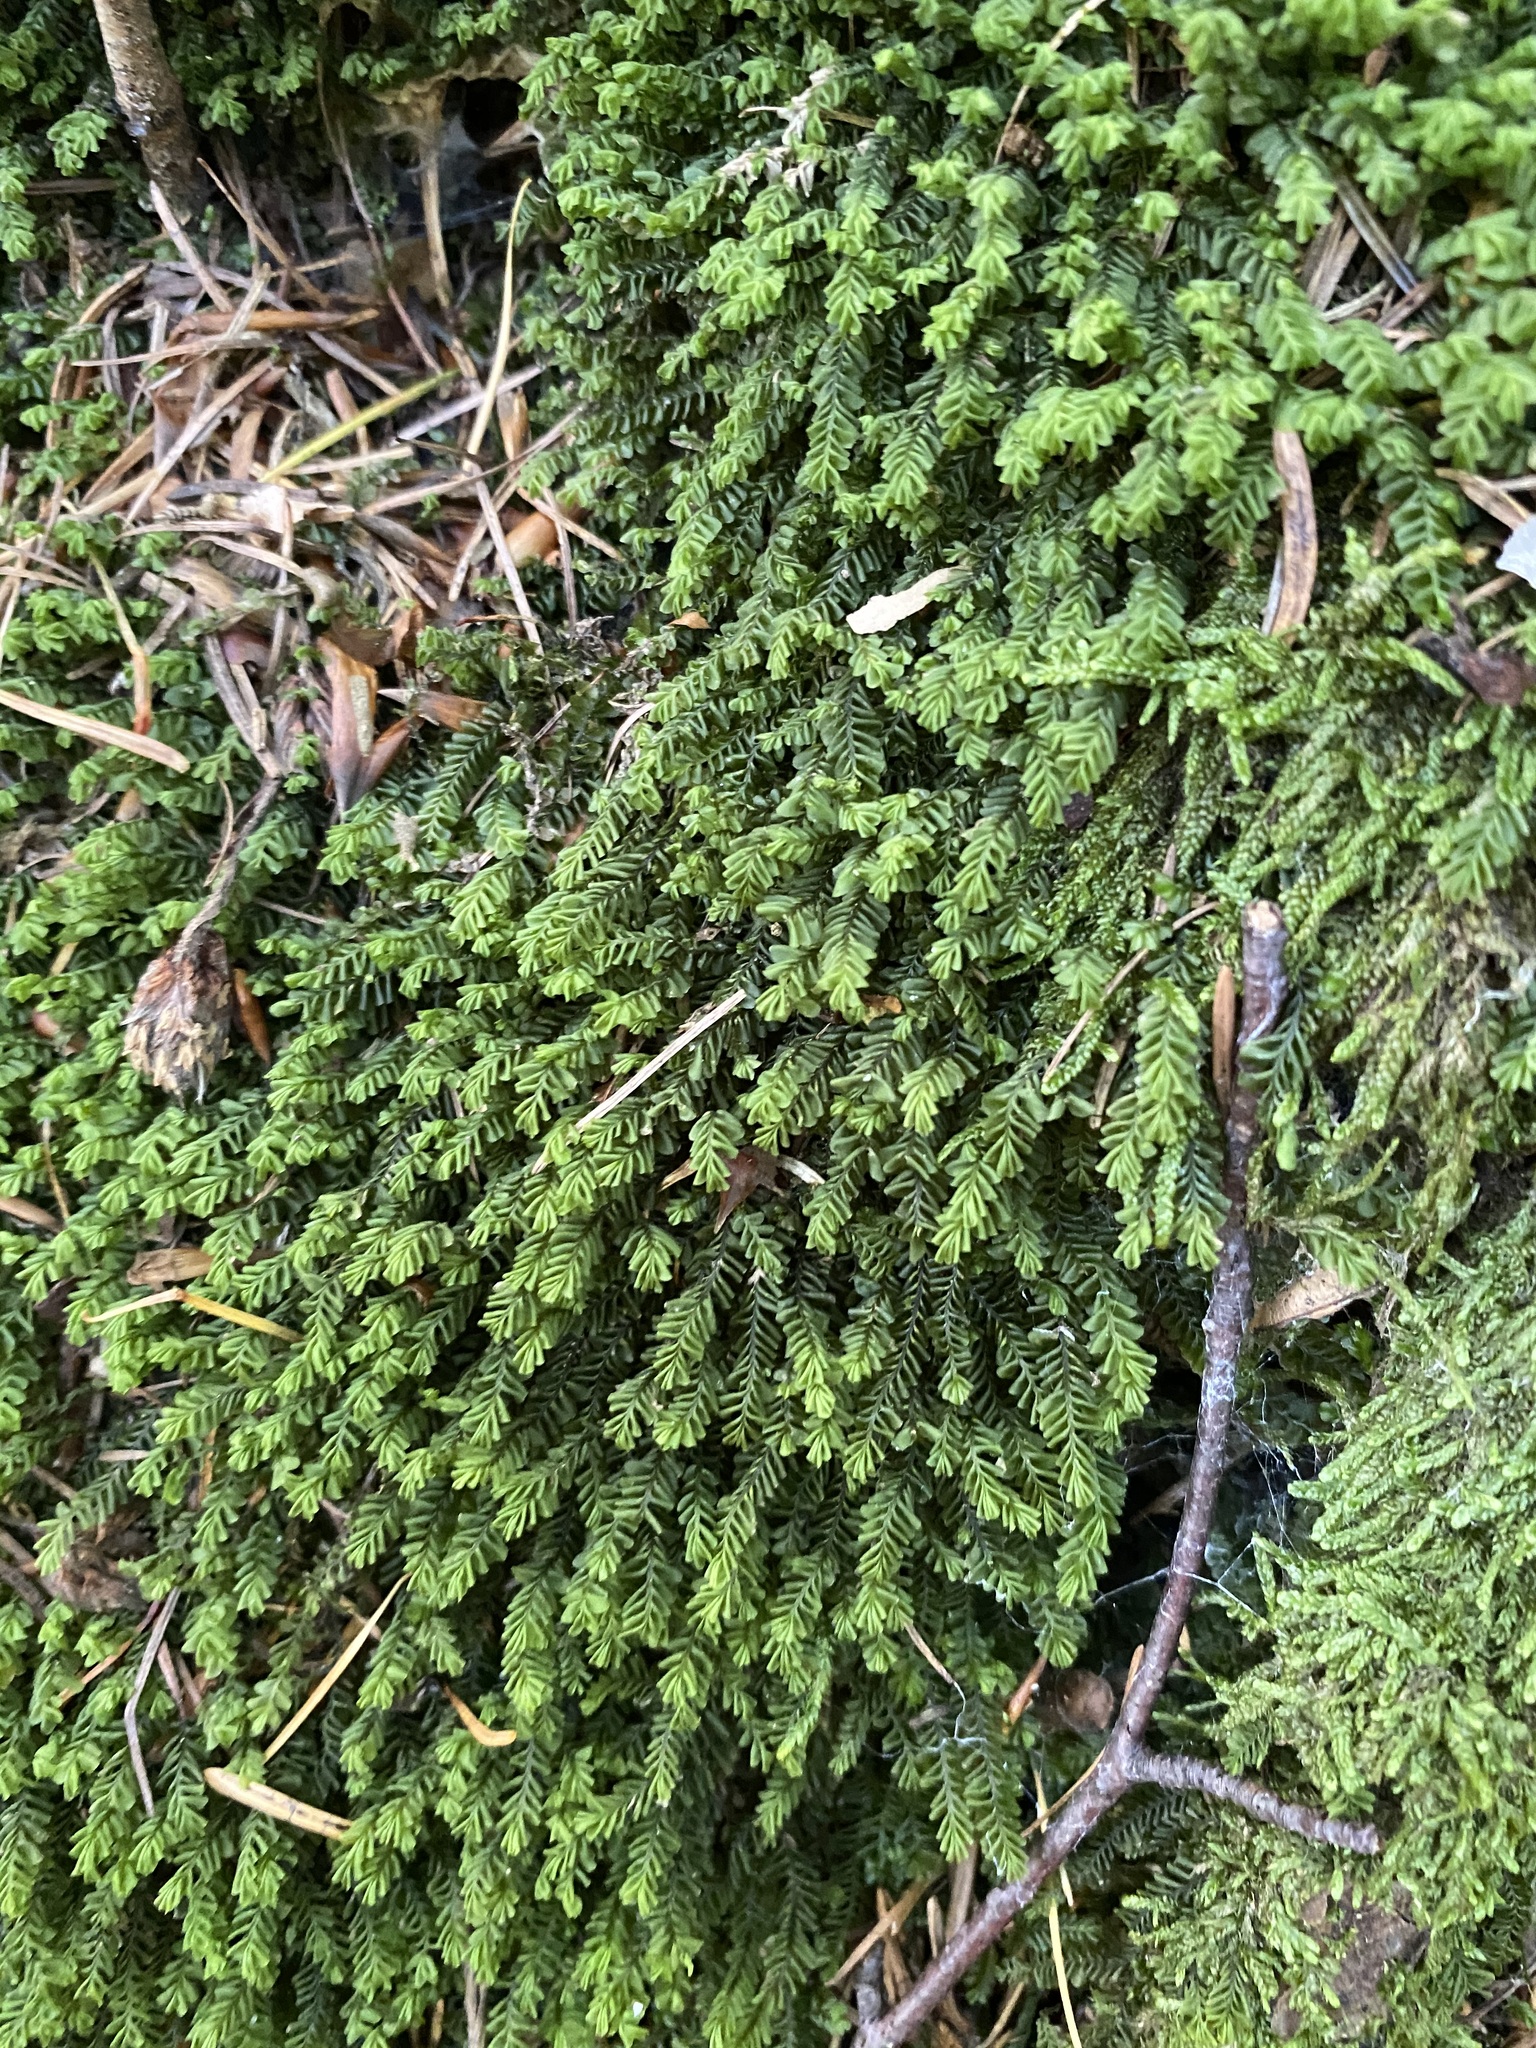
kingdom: Plantae
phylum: Marchantiophyta
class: Jungermanniopsida
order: Jungermanniales
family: Plagiochilaceae
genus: Plagiochila
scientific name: Plagiochila porelloides
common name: Lesser featherwort
